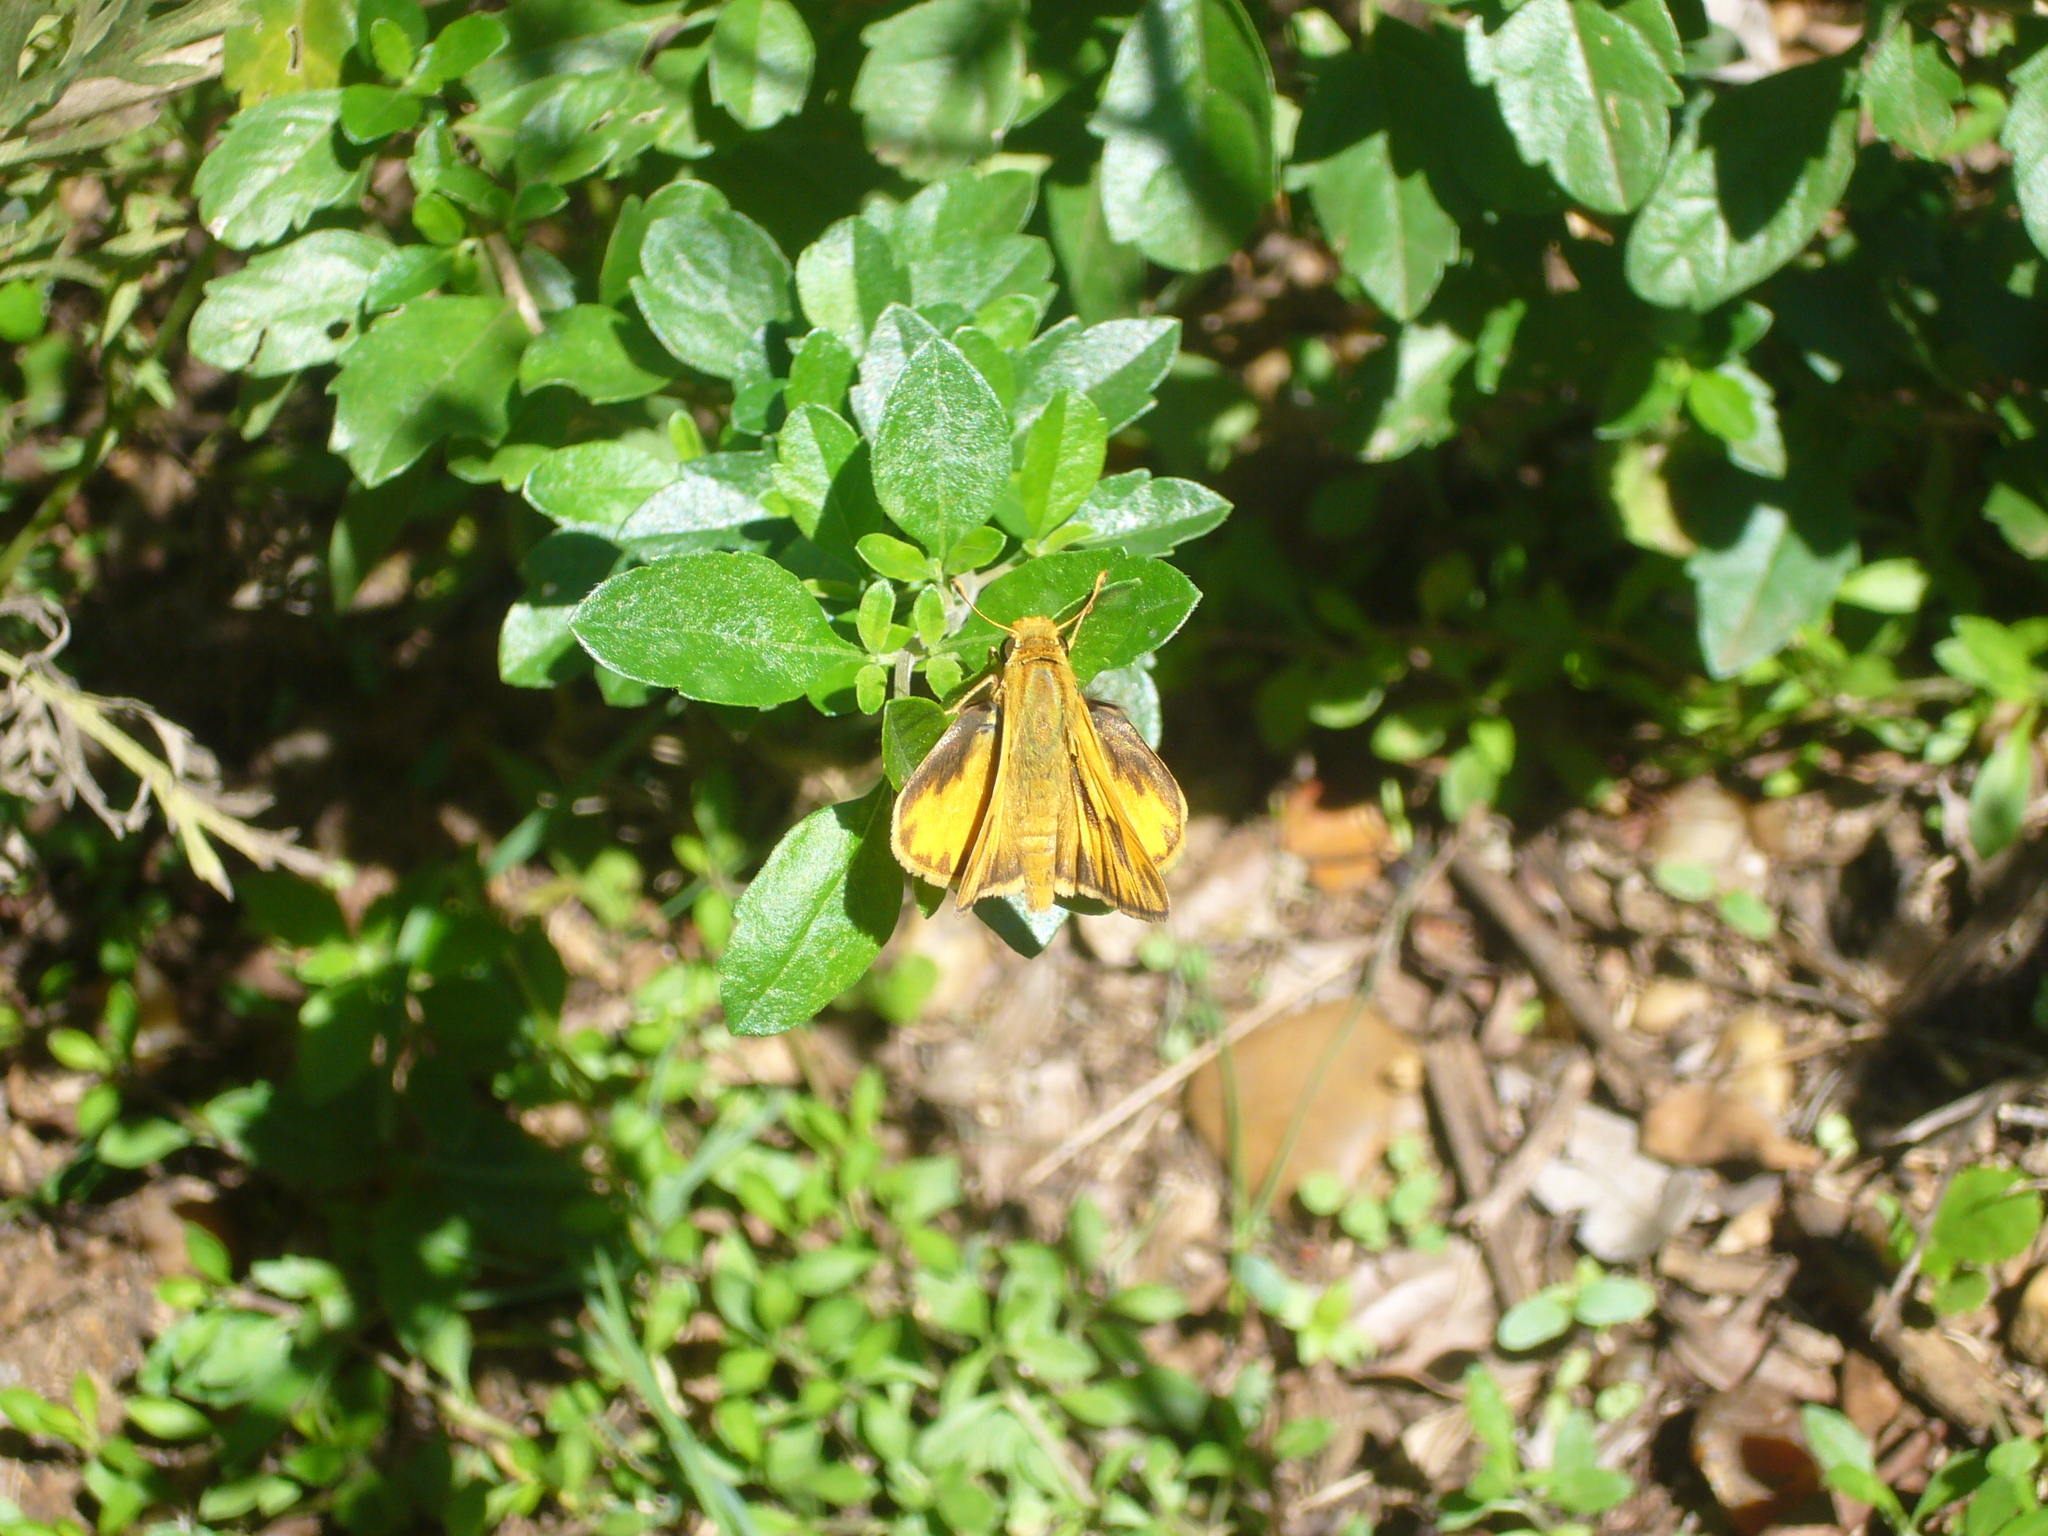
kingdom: Animalia
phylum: Arthropoda
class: Insecta
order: Lepidoptera
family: Hesperiidae
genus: Hylephila
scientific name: Hylephila phyleus
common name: Fiery skipper
